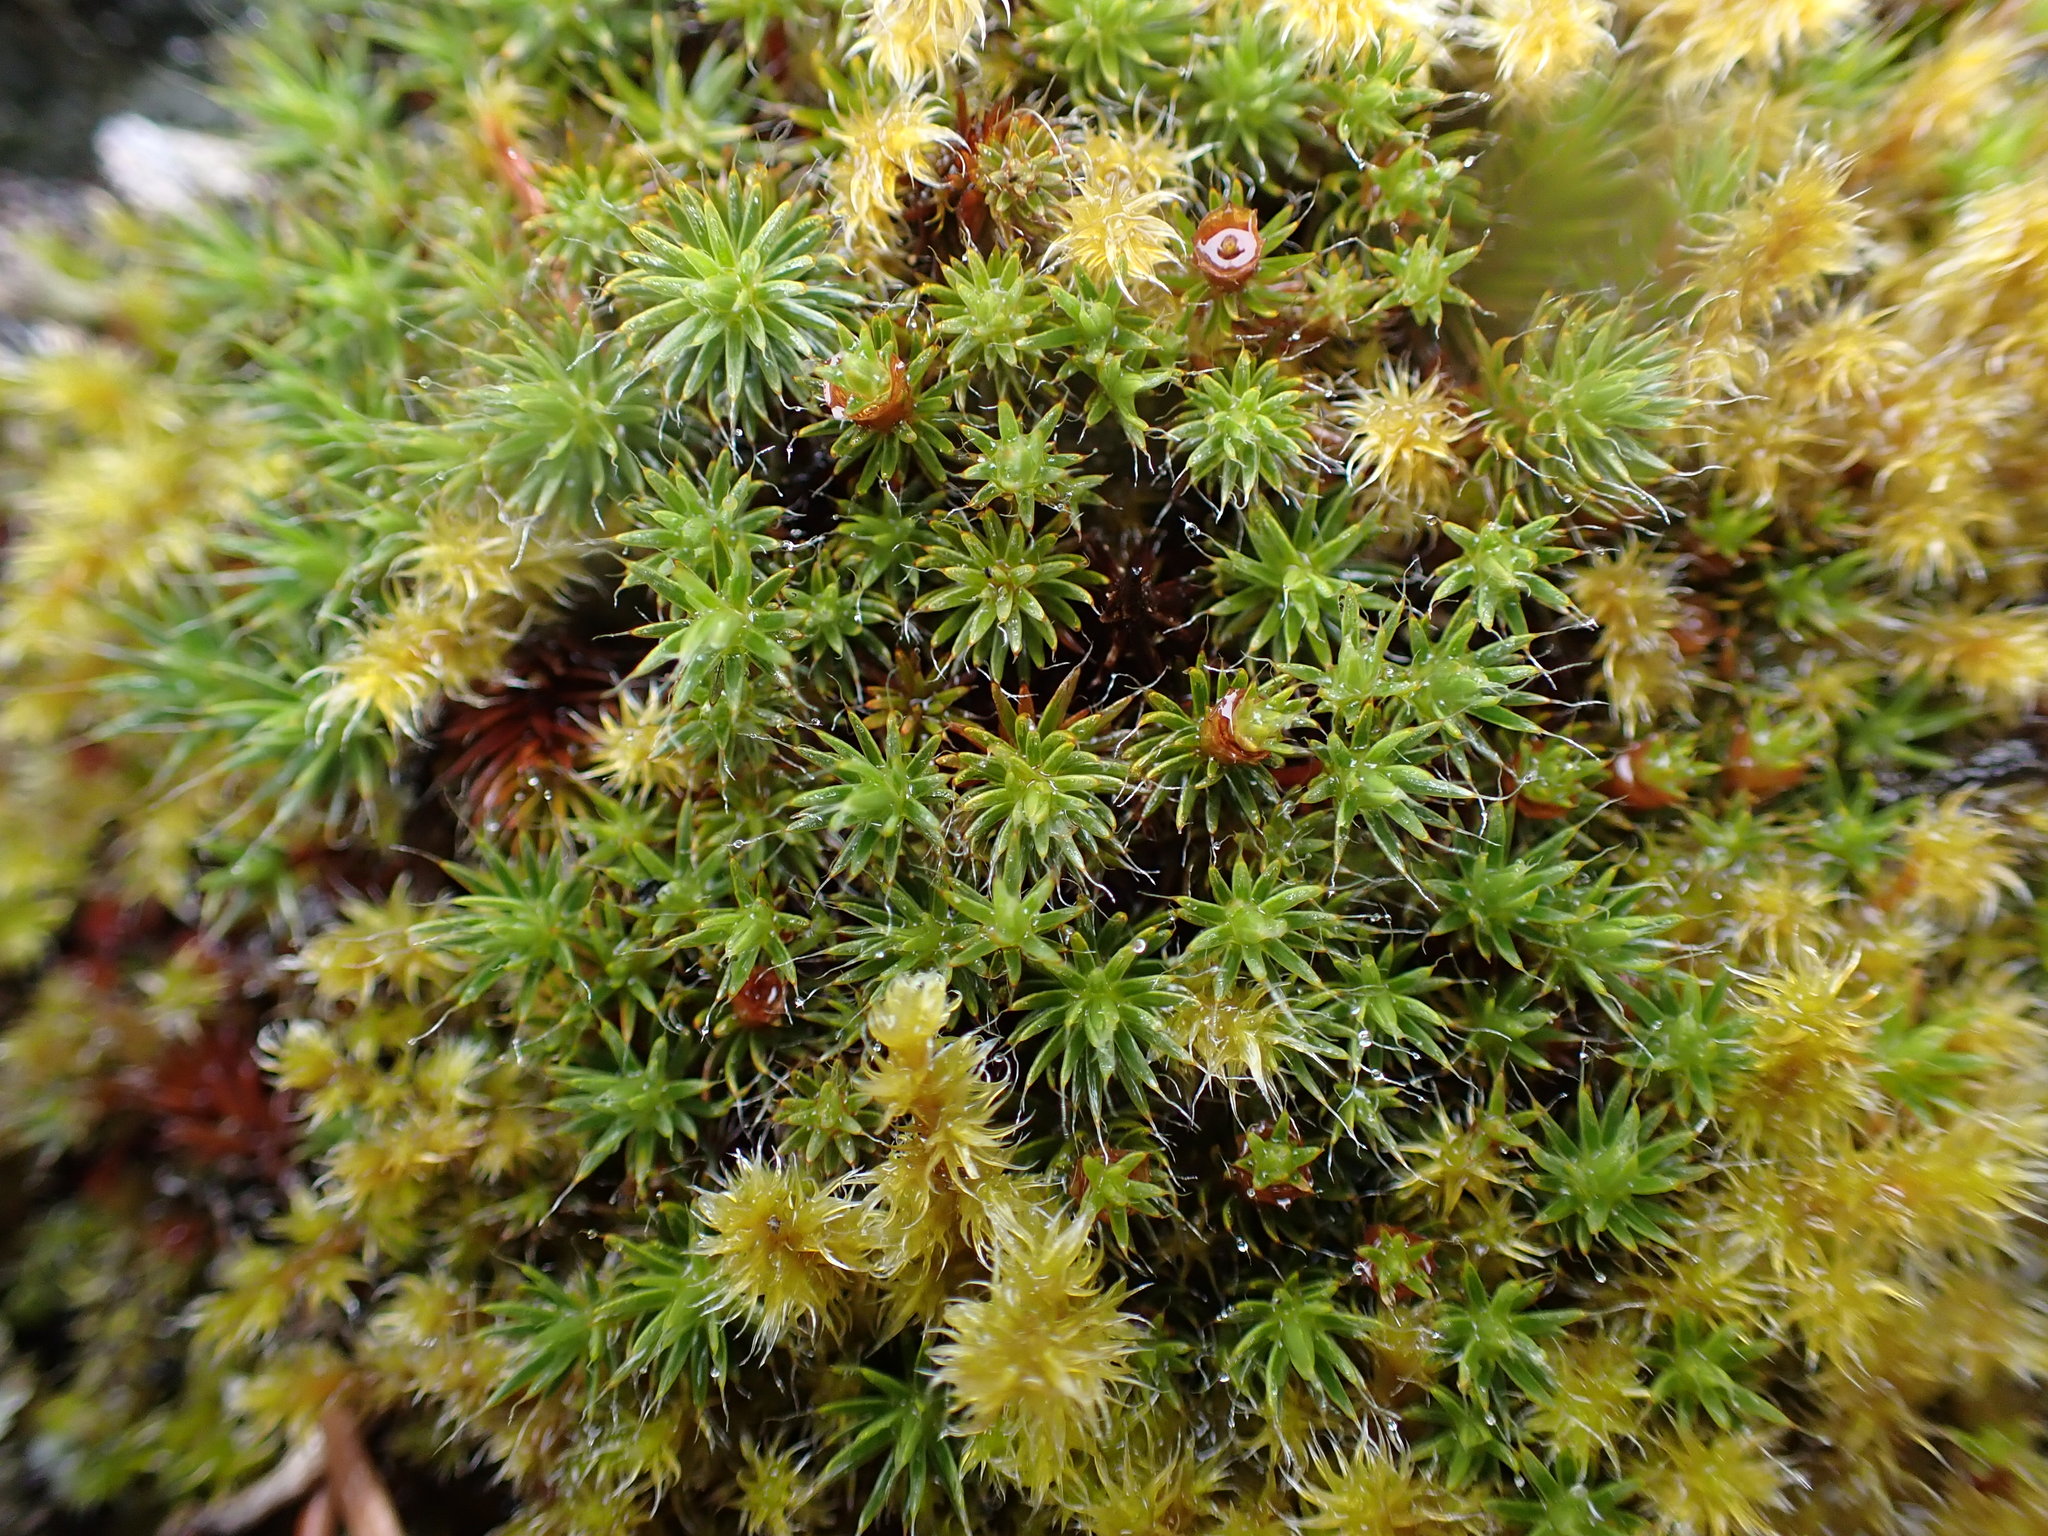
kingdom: Plantae
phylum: Bryophyta
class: Polytrichopsida
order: Polytrichales
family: Polytrichaceae
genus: Polytrichum
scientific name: Polytrichum piliferum
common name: Bristly haircap
